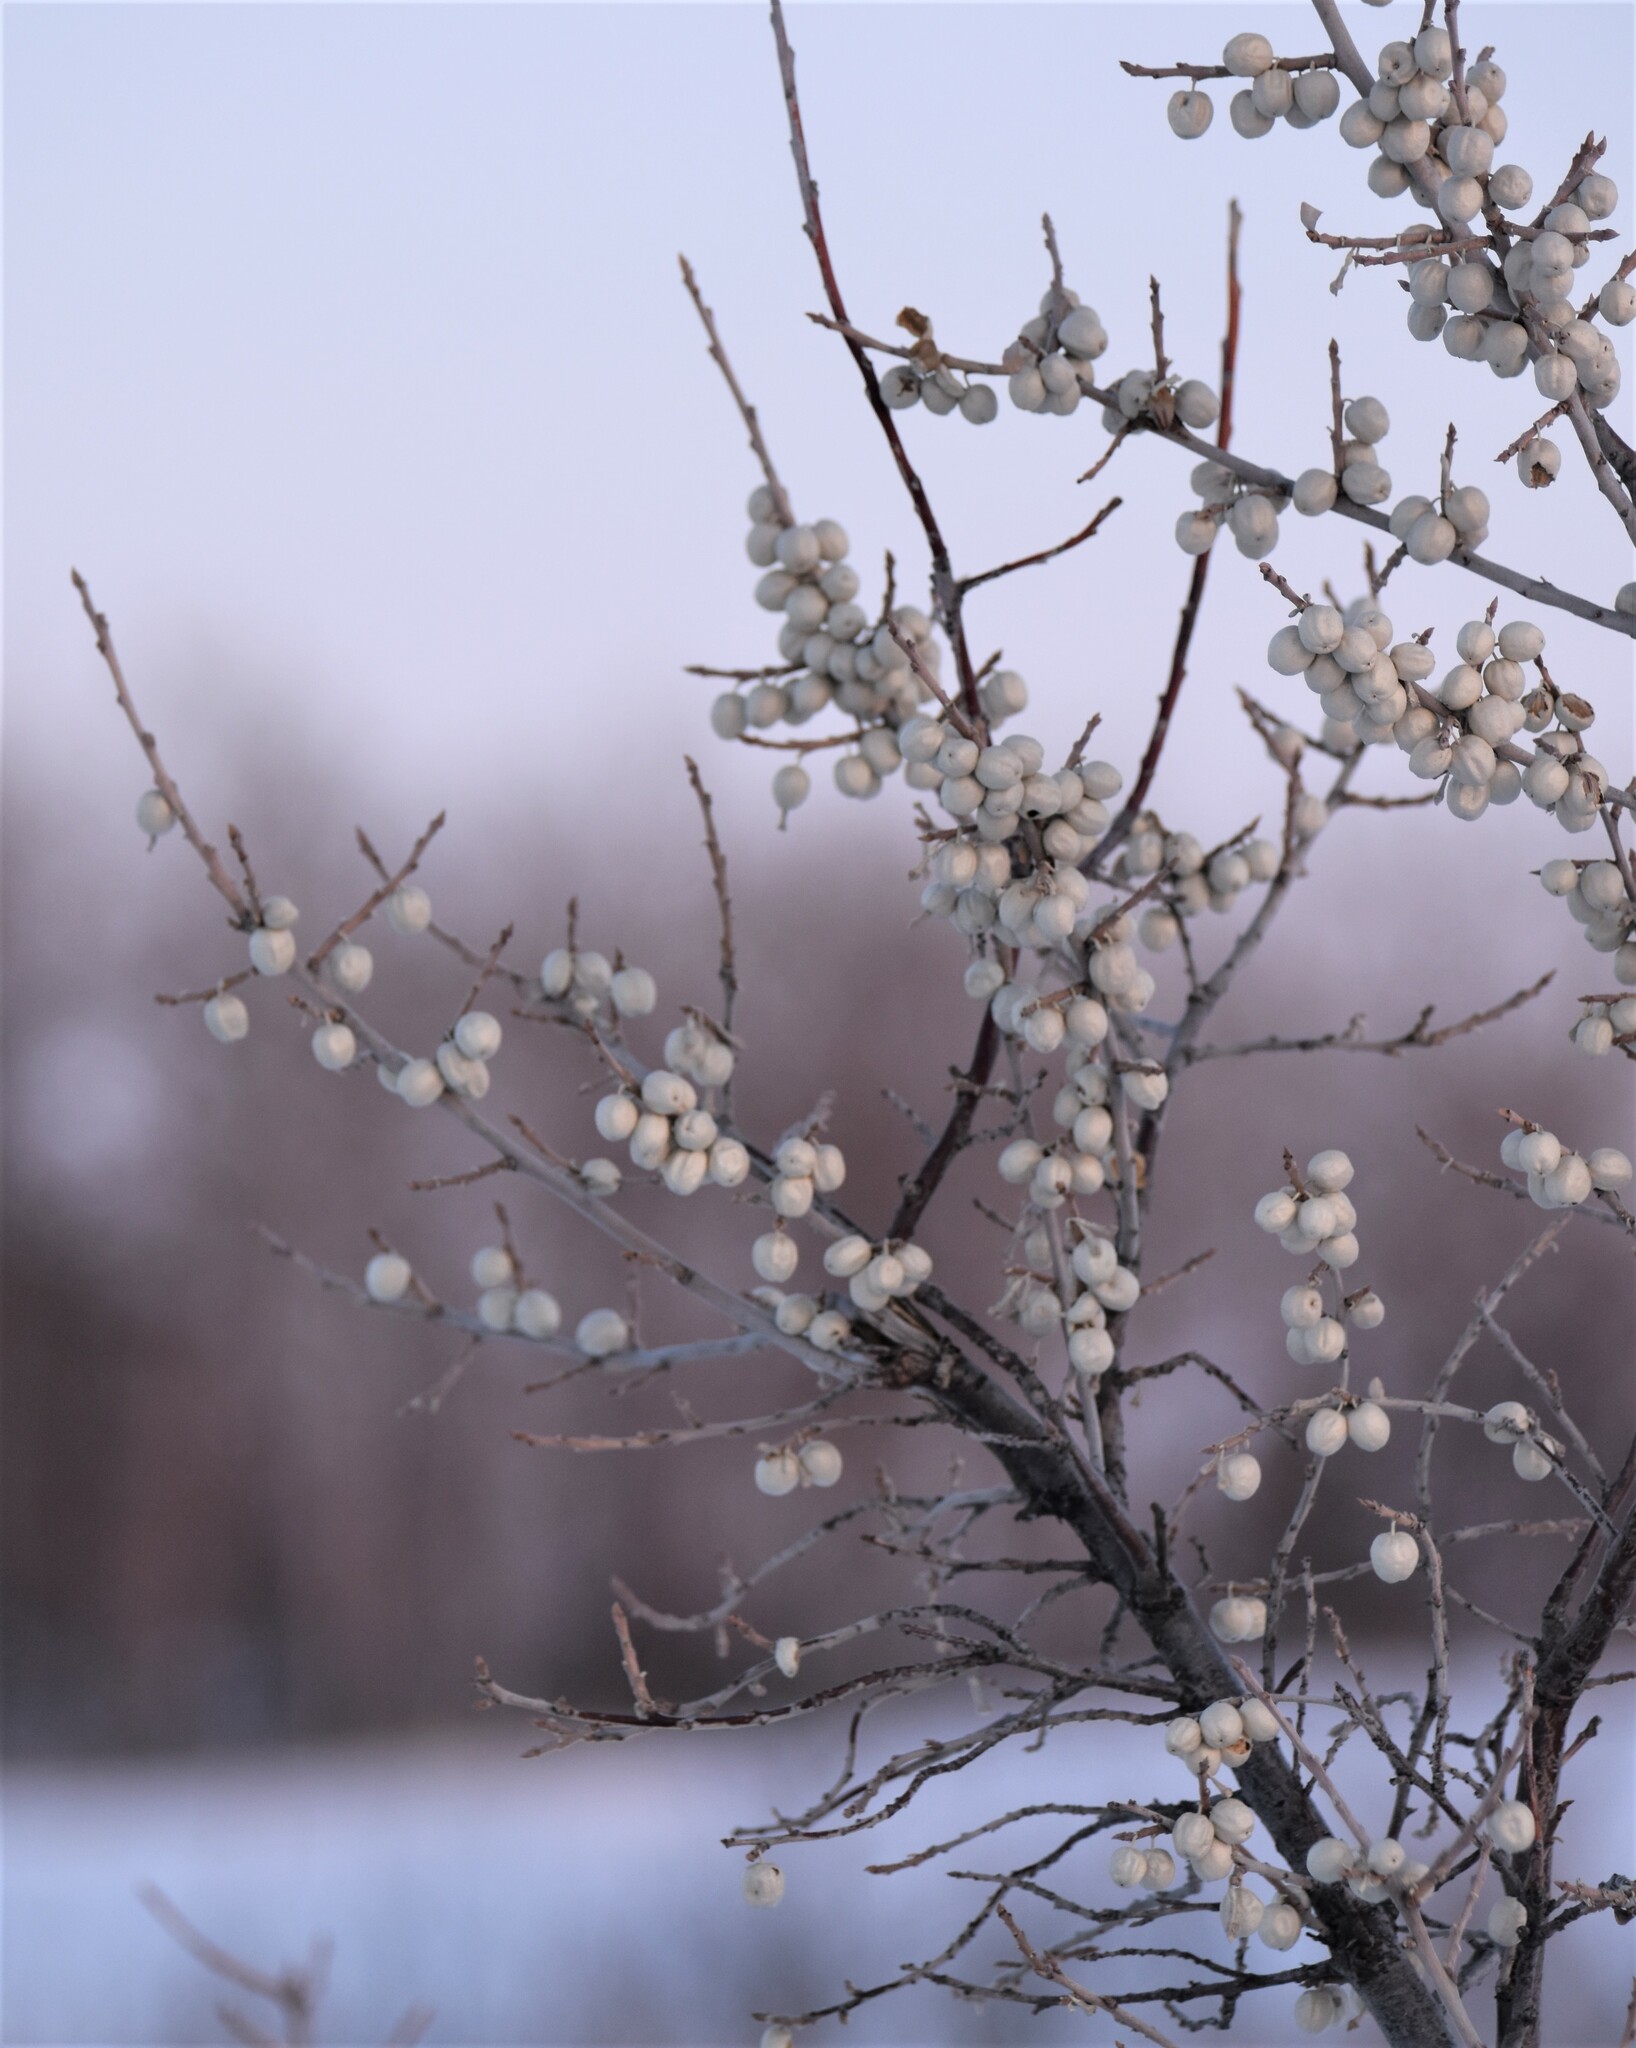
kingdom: Plantae
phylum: Tracheophyta
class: Magnoliopsida
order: Rosales
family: Elaeagnaceae
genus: Elaeagnus
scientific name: Elaeagnus commutata
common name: Silverberry
